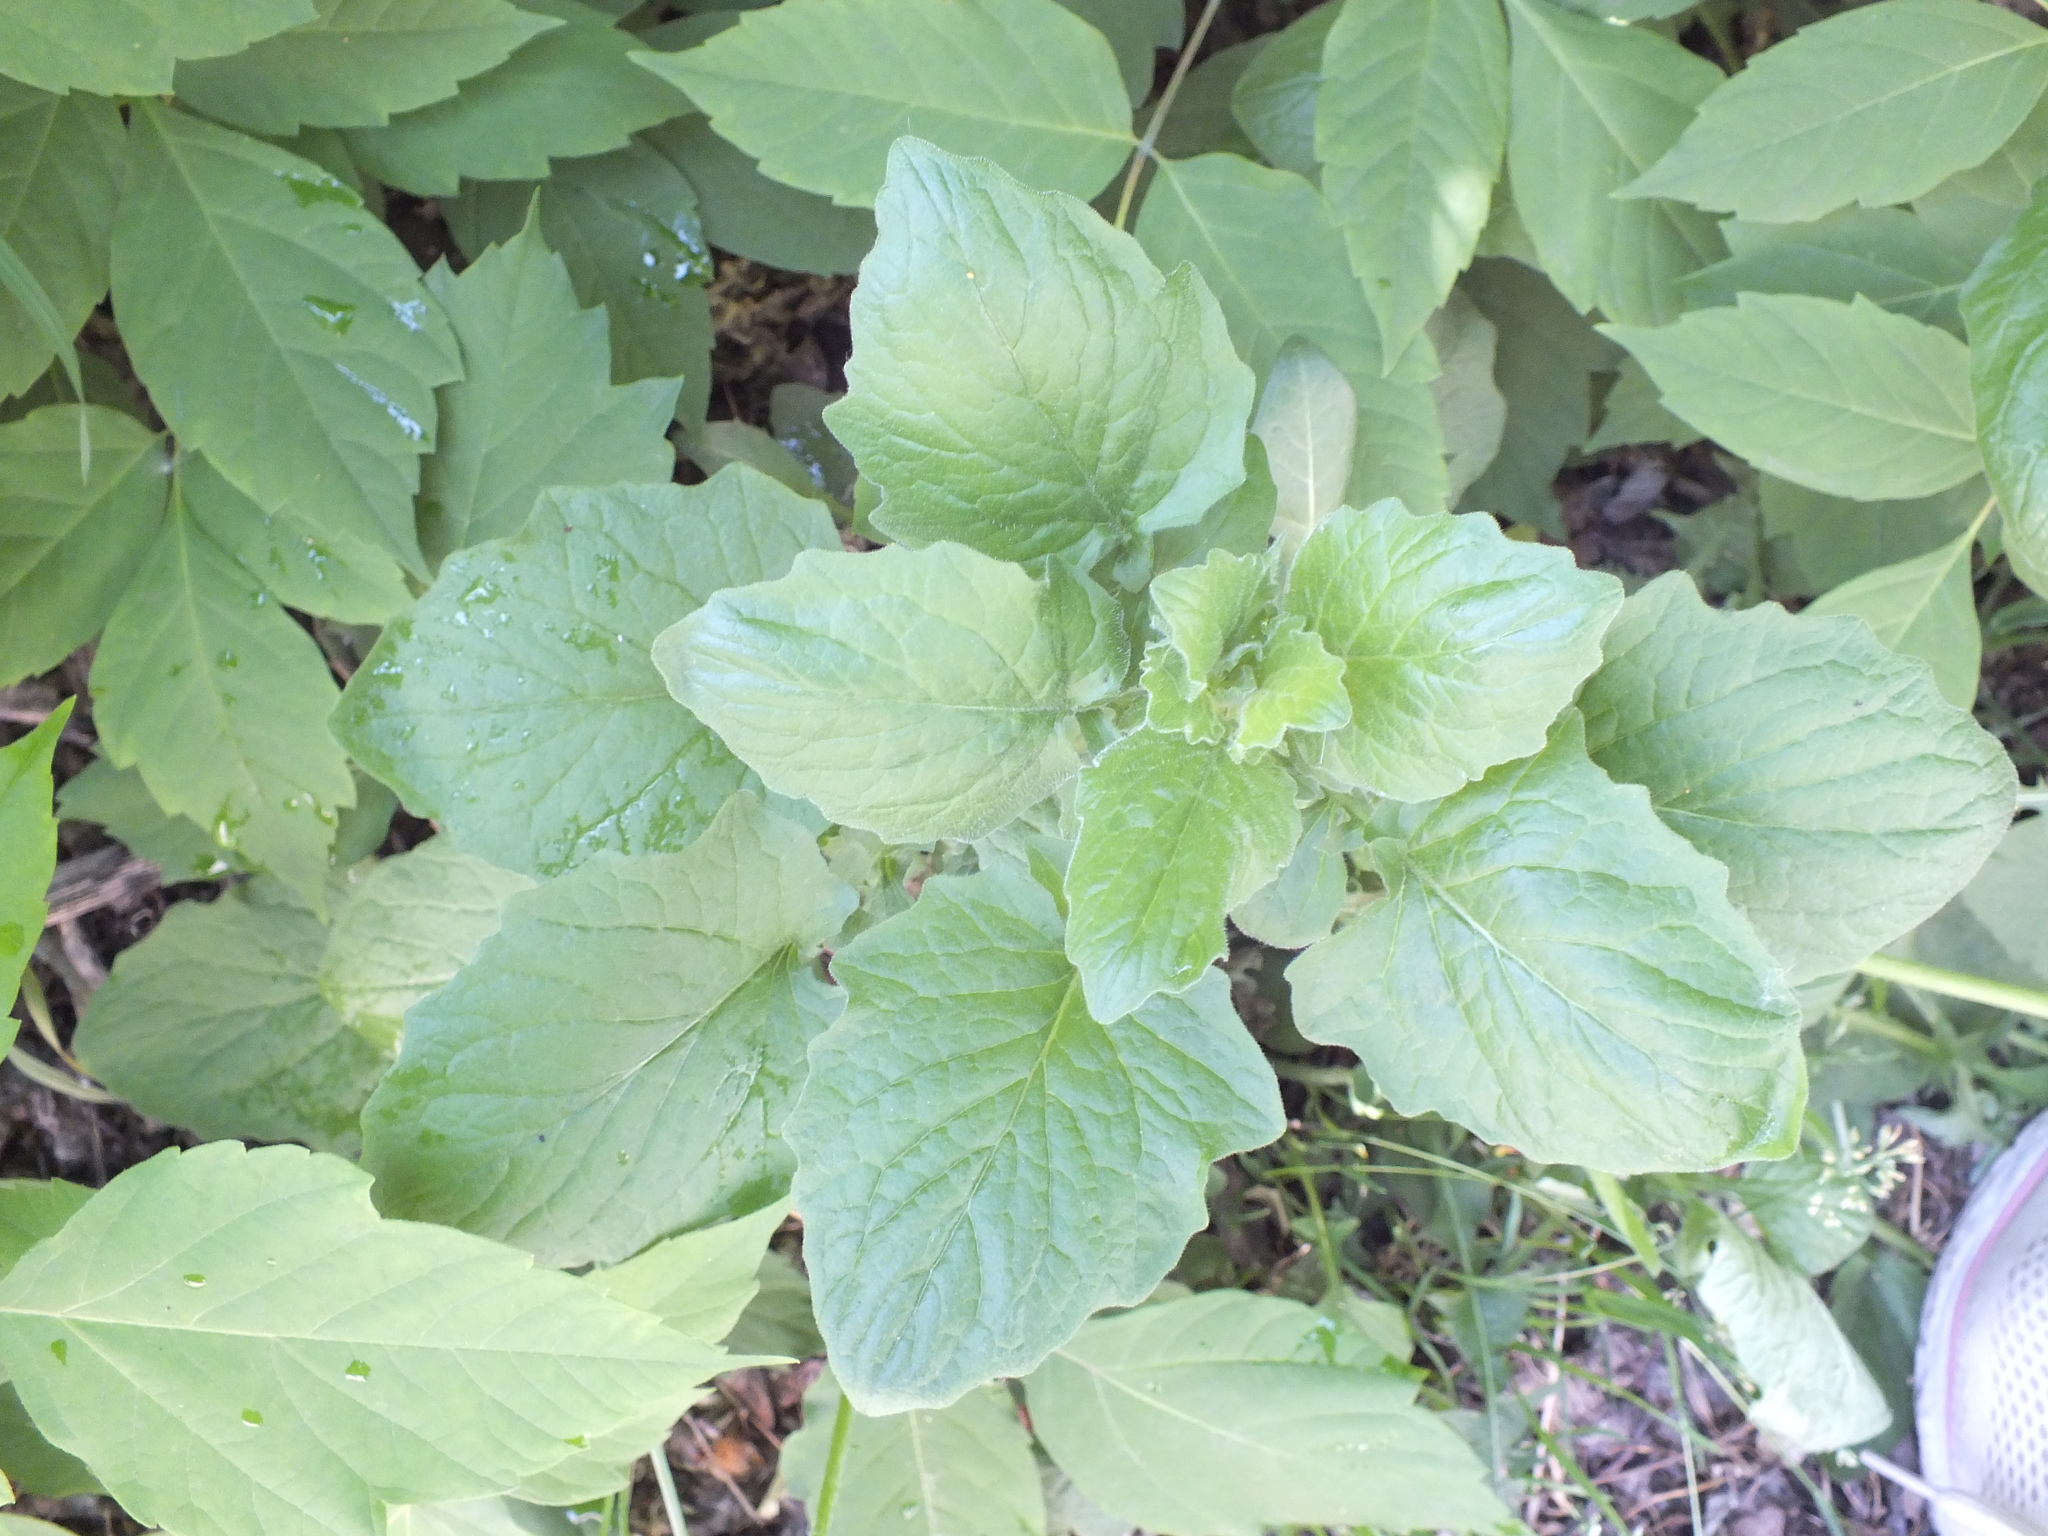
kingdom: Plantae
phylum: Tracheophyta
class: Magnoliopsida
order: Asterales
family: Asteraceae
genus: Lapsana
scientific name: Lapsana communis
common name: Nipplewort
